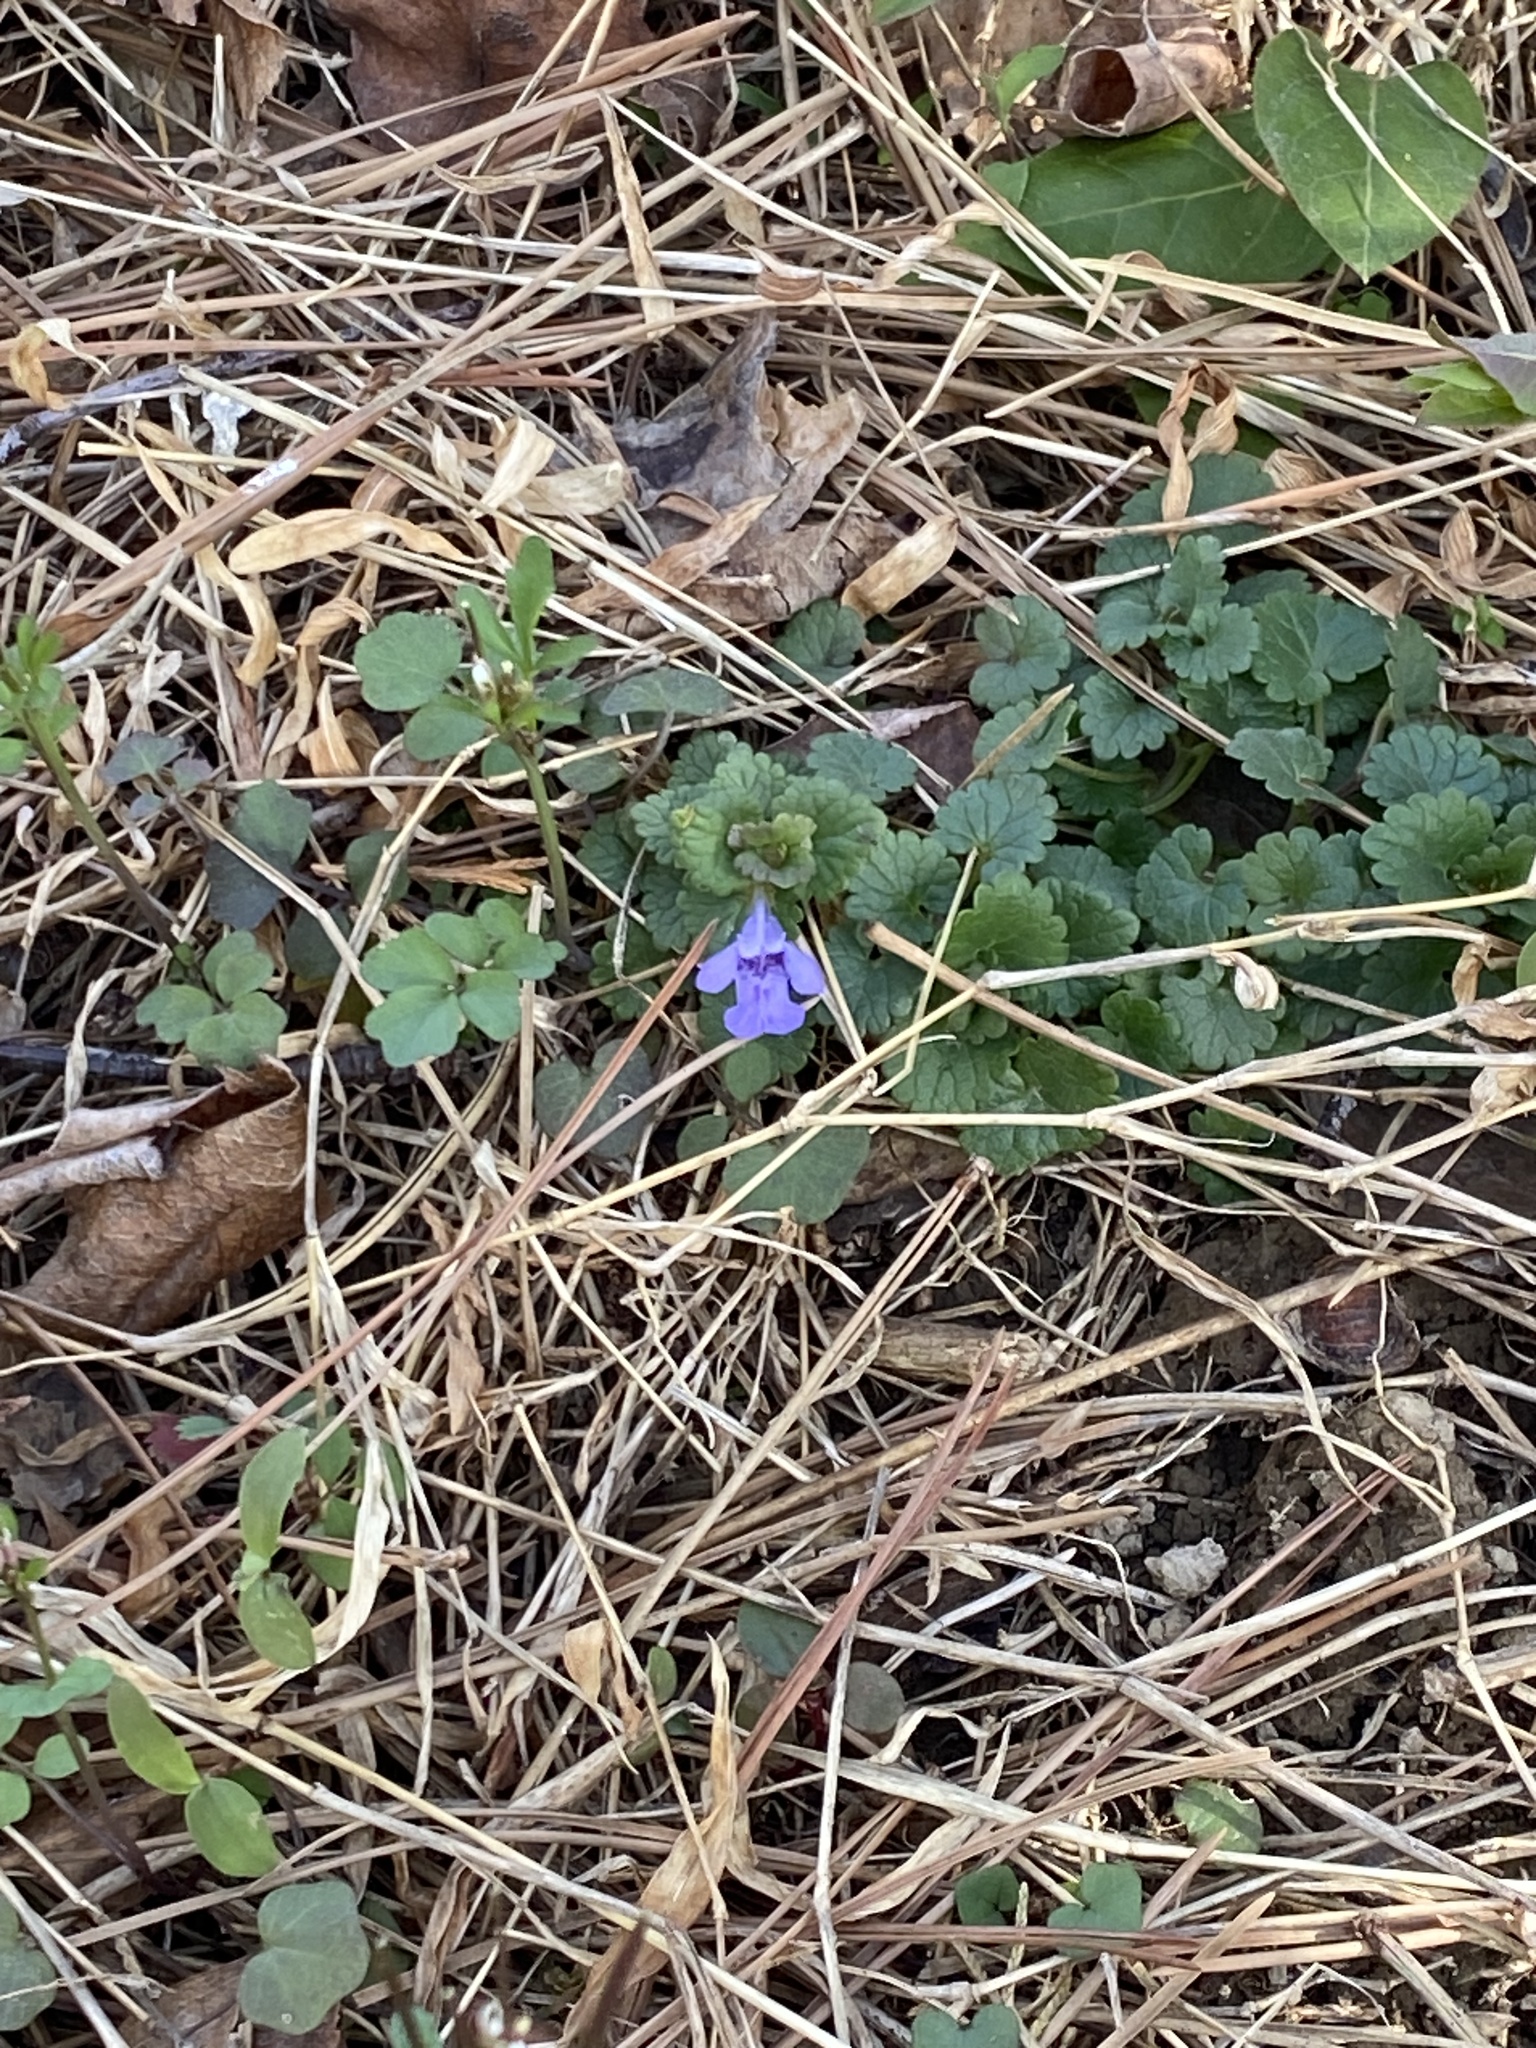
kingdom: Plantae
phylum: Tracheophyta
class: Magnoliopsida
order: Lamiales
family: Lamiaceae
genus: Glechoma
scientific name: Glechoma hederacea
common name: Ground ivy
